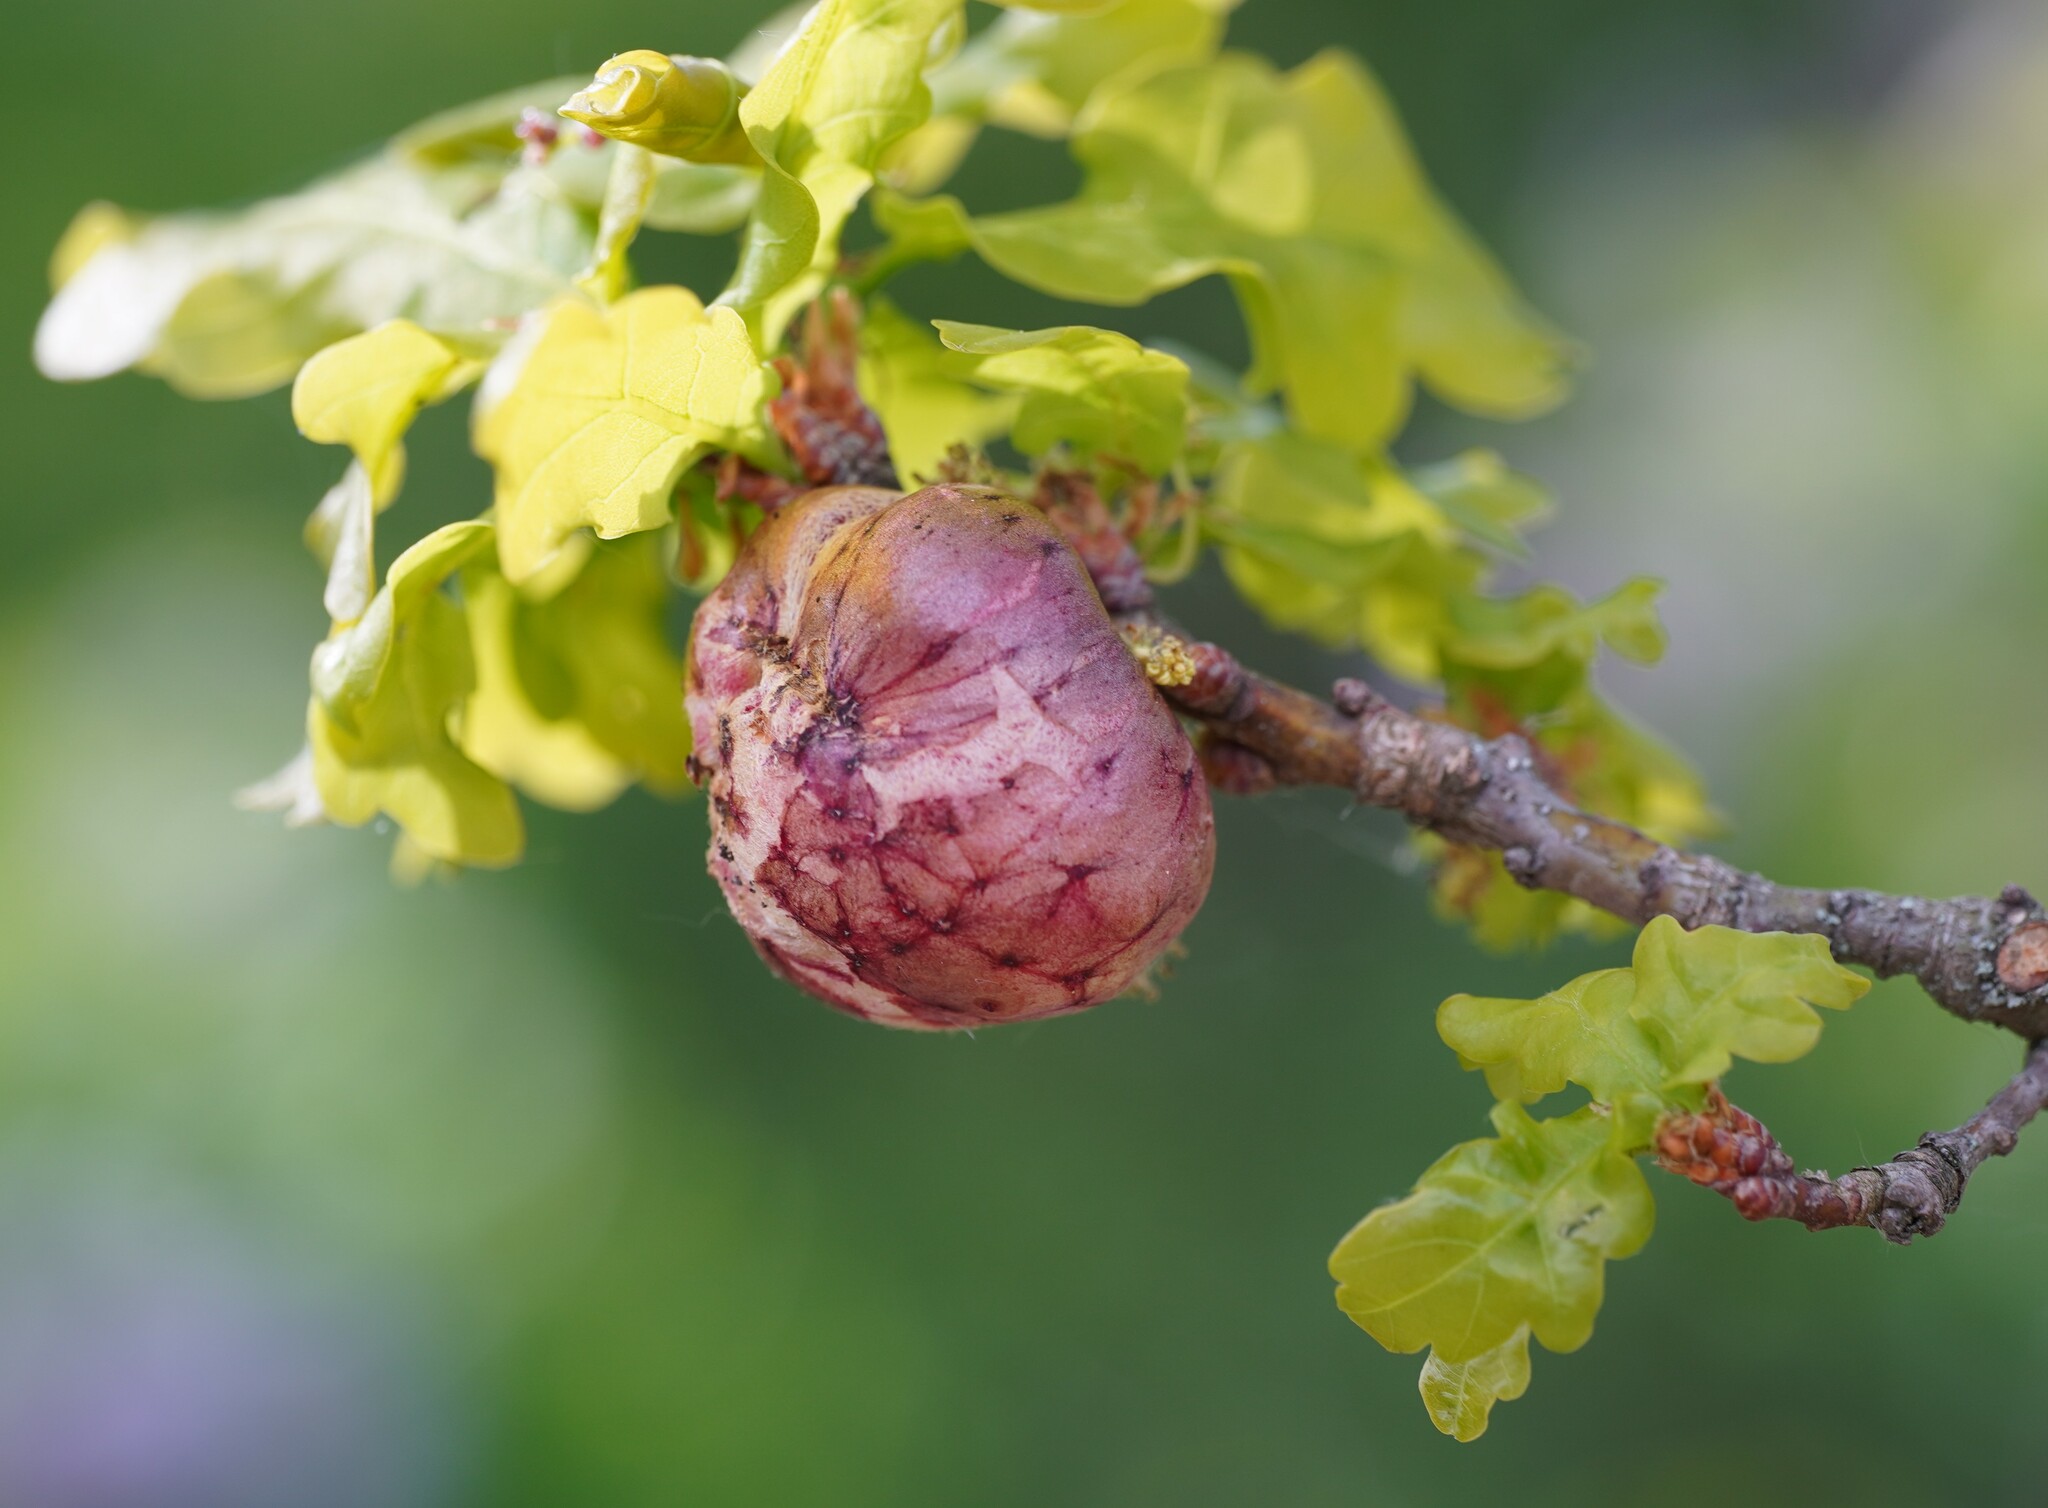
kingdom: Animalia
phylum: Arthropoda
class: Insecta
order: Hymenoptera
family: Cynipidae
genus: Biorhiza
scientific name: Biorhiza pallida
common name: Oak apple
